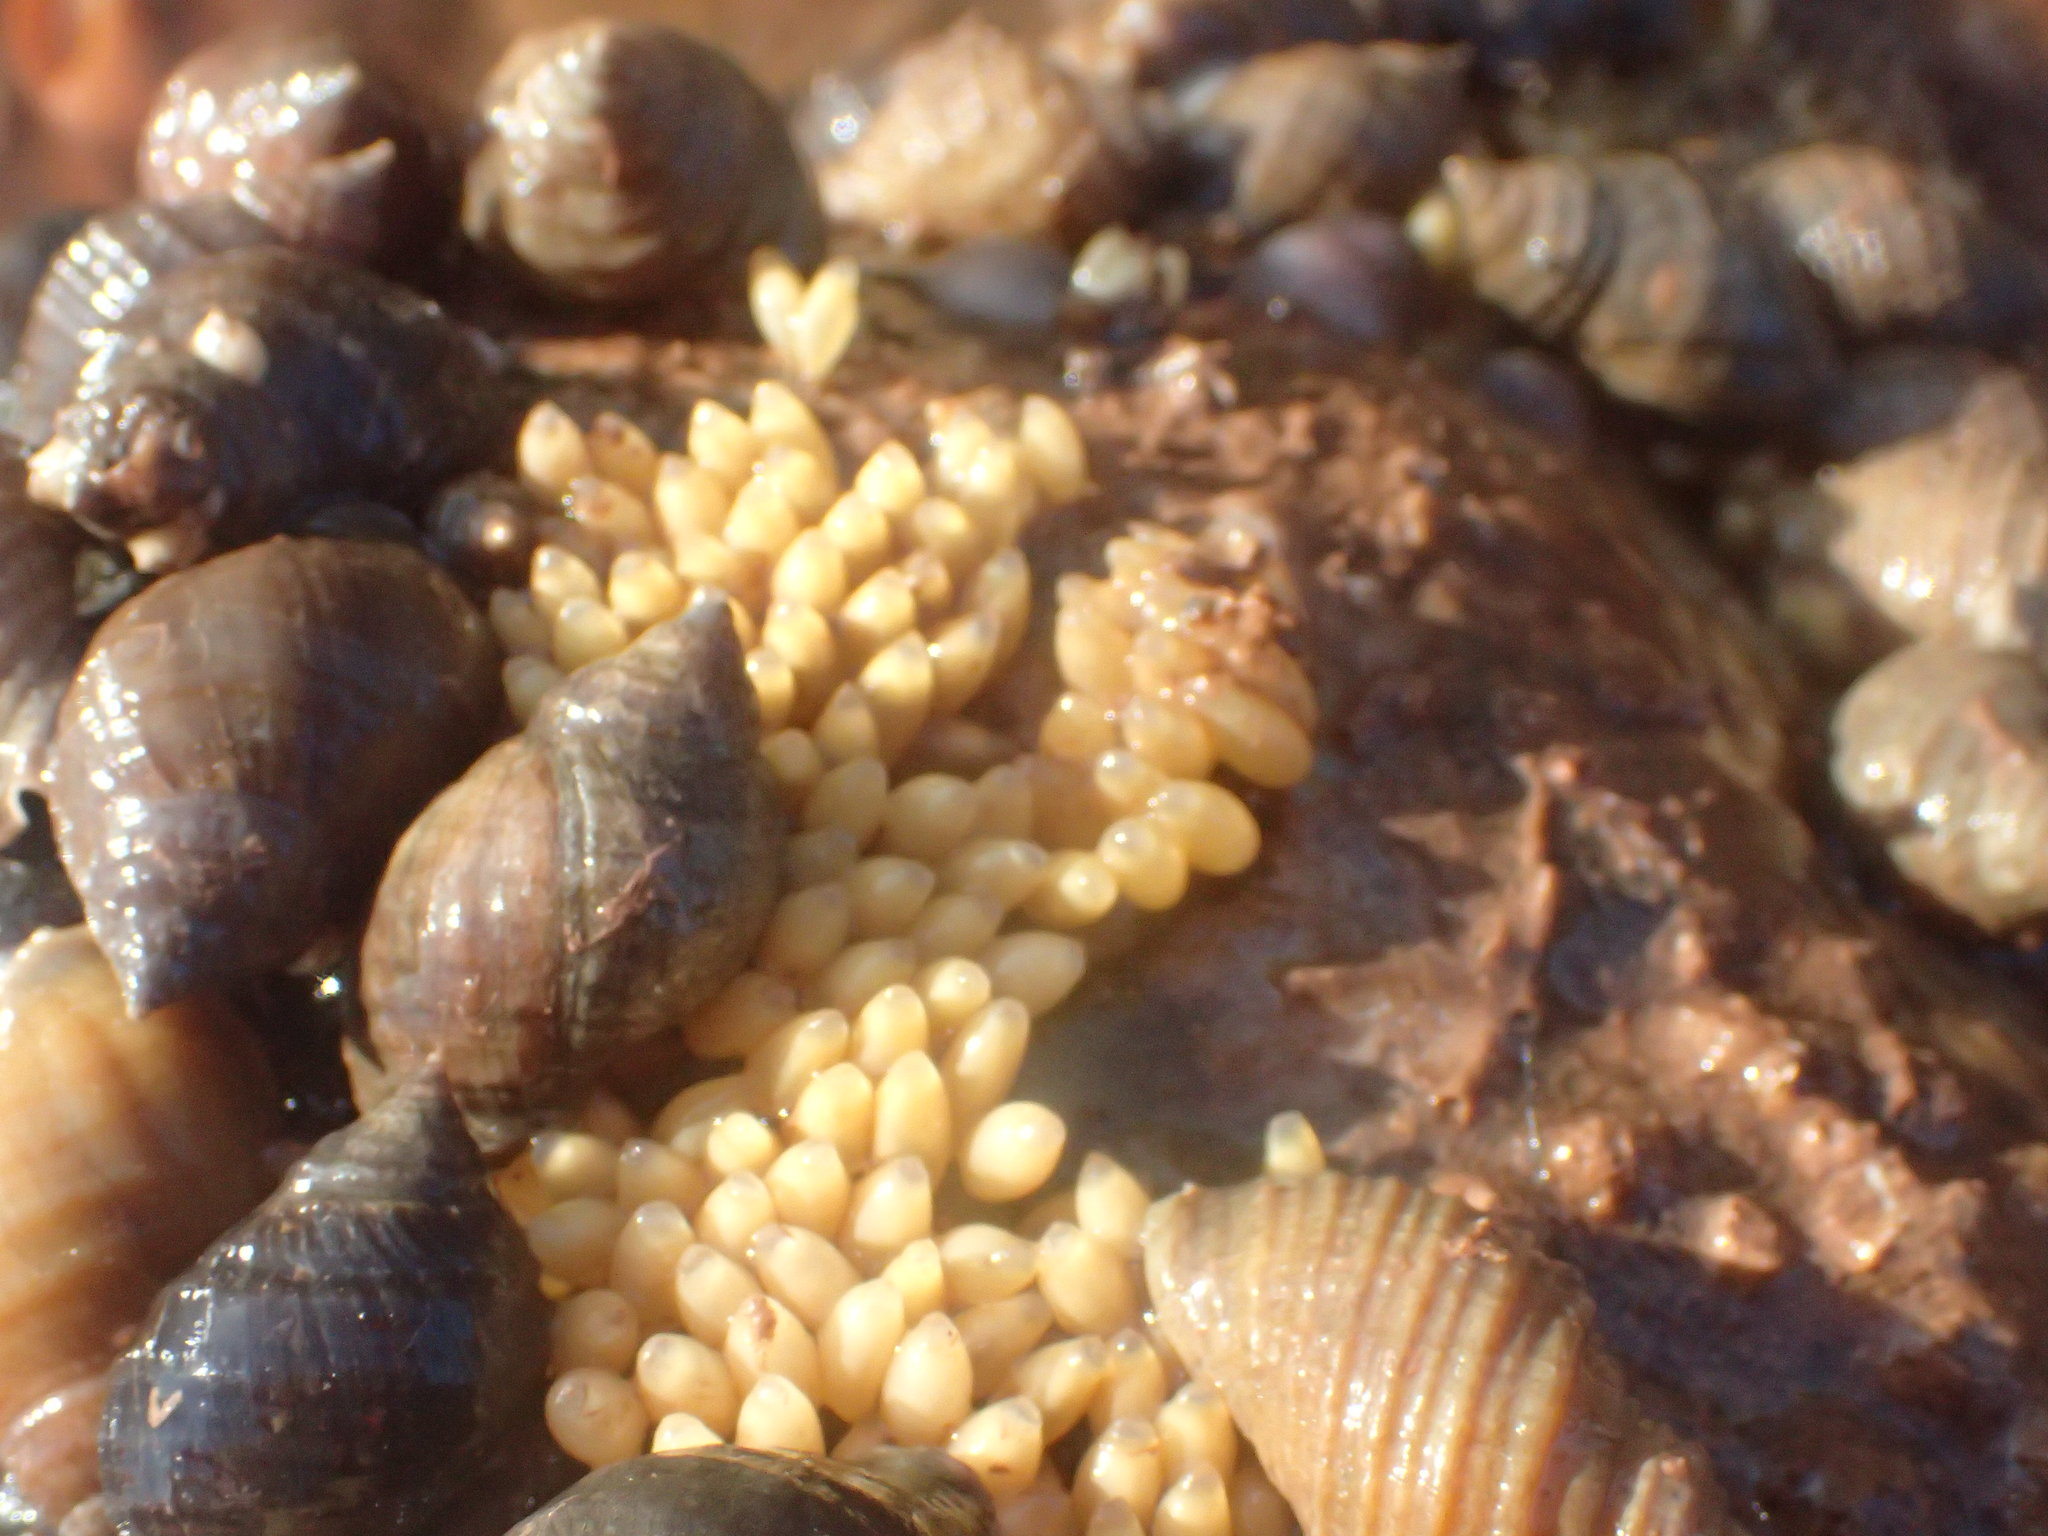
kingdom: Animalia
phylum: Mollusca
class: Gastropoda
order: Neogastropoda
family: Muricidae
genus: Nucella
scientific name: Nucella lapillus
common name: Dog whelk
